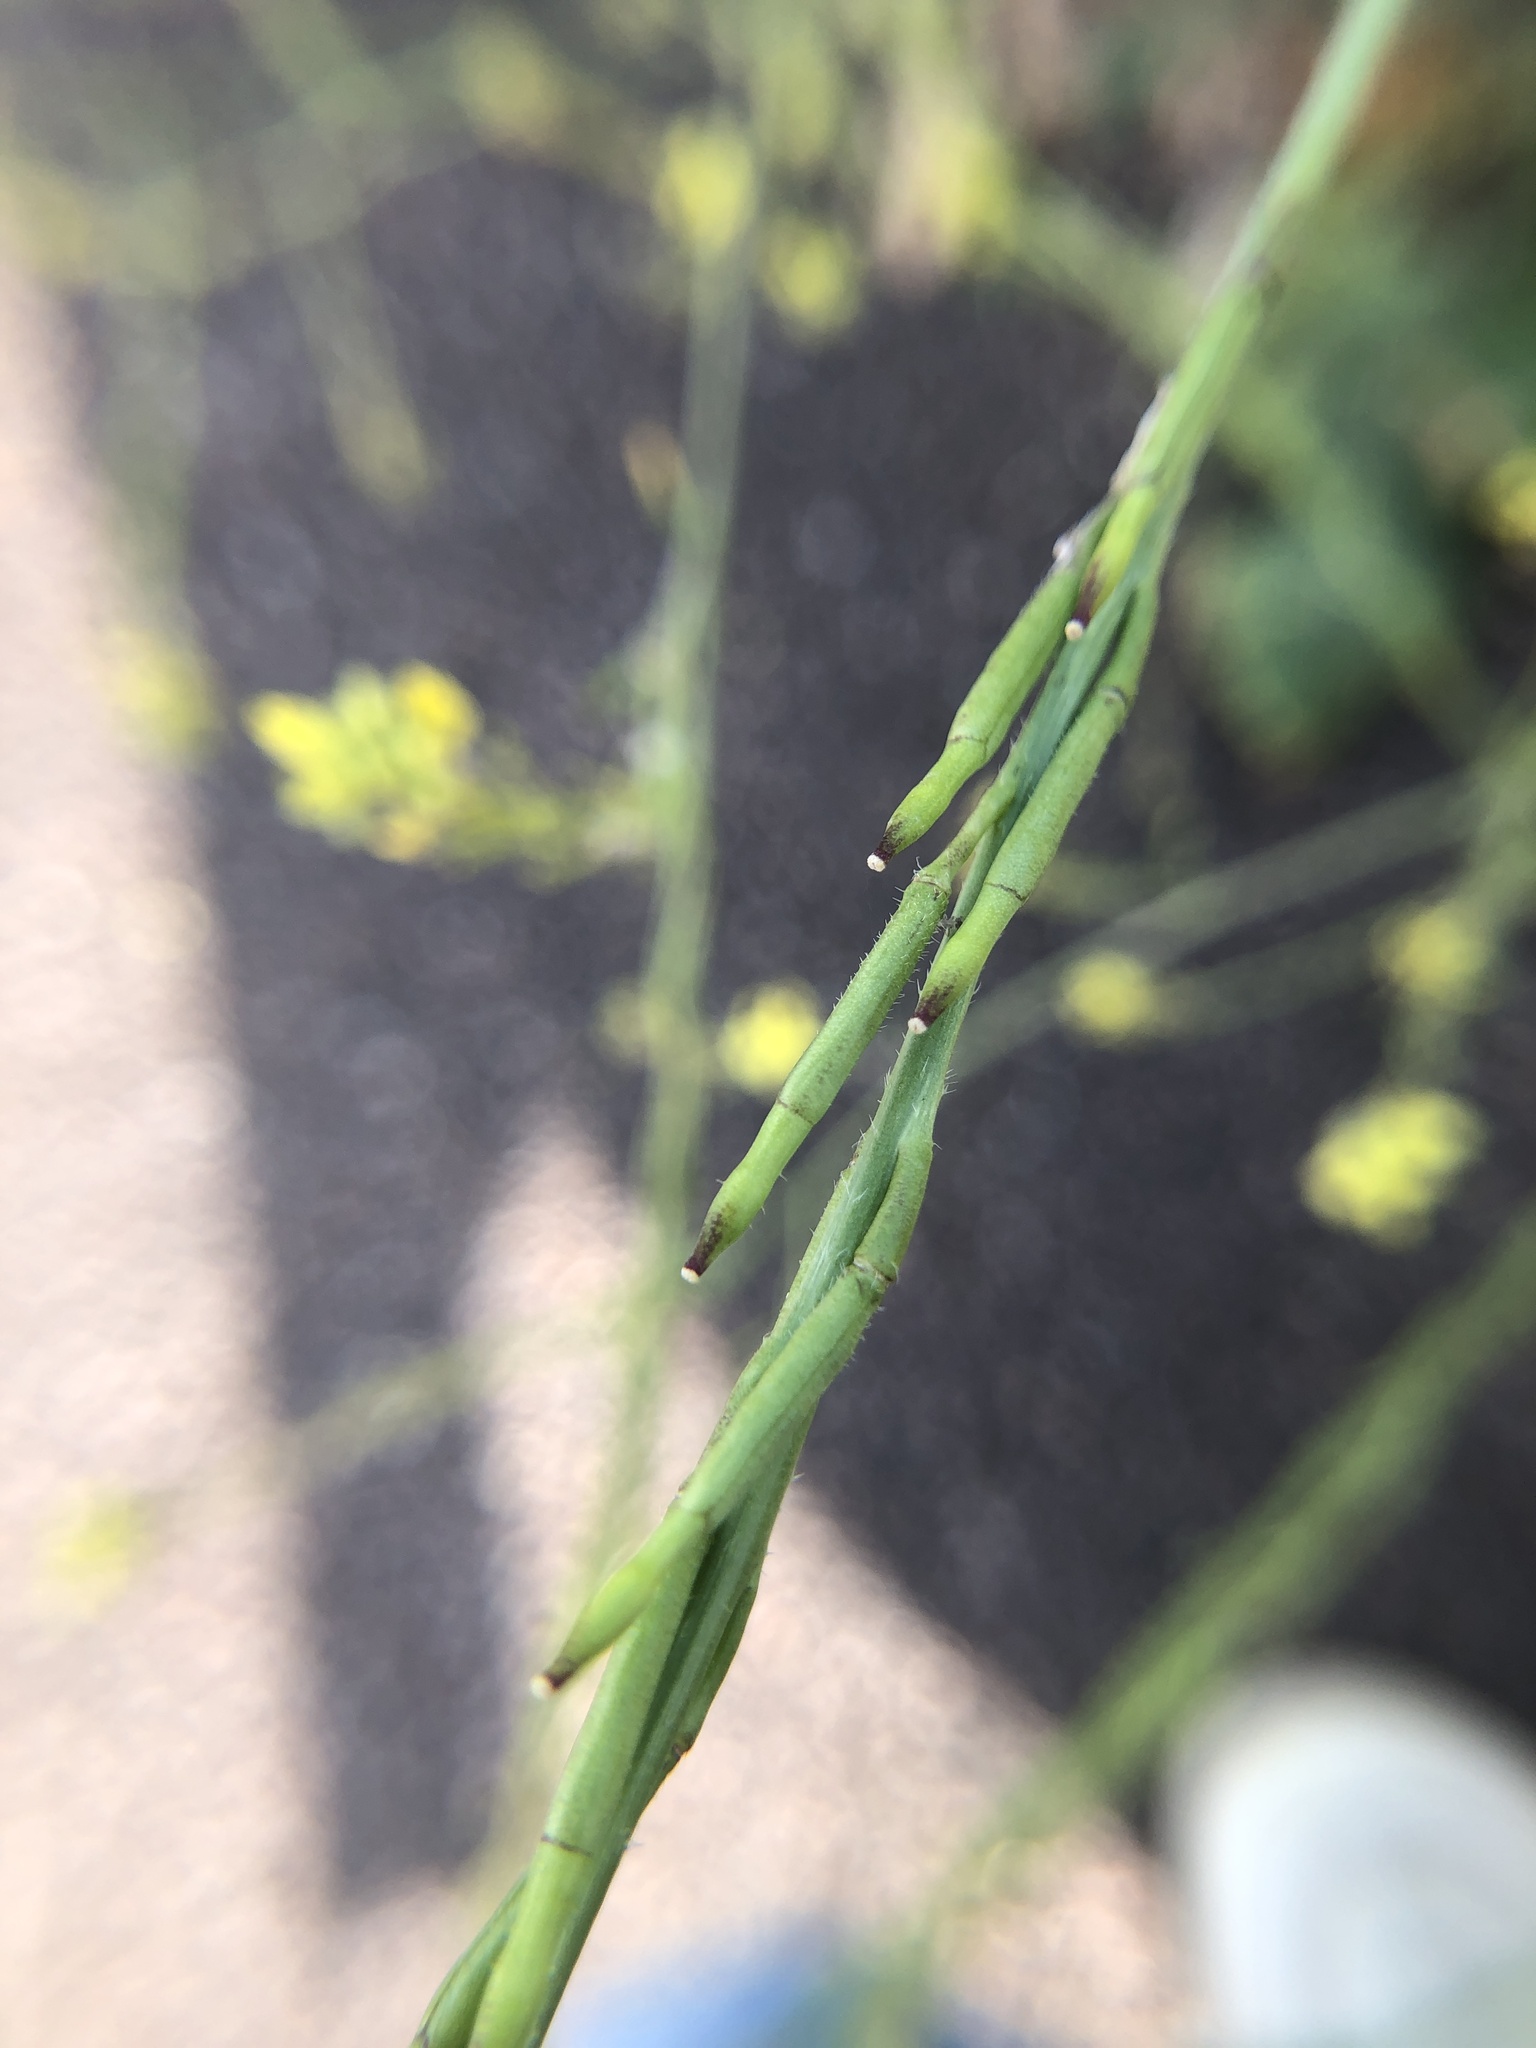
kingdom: Plantae
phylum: Tracheophyta
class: Magnoliopsida
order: Brassicales
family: Brassicaceae
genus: Hirschfeldia
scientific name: Hirschfeldia incana
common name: Hoary mustard
